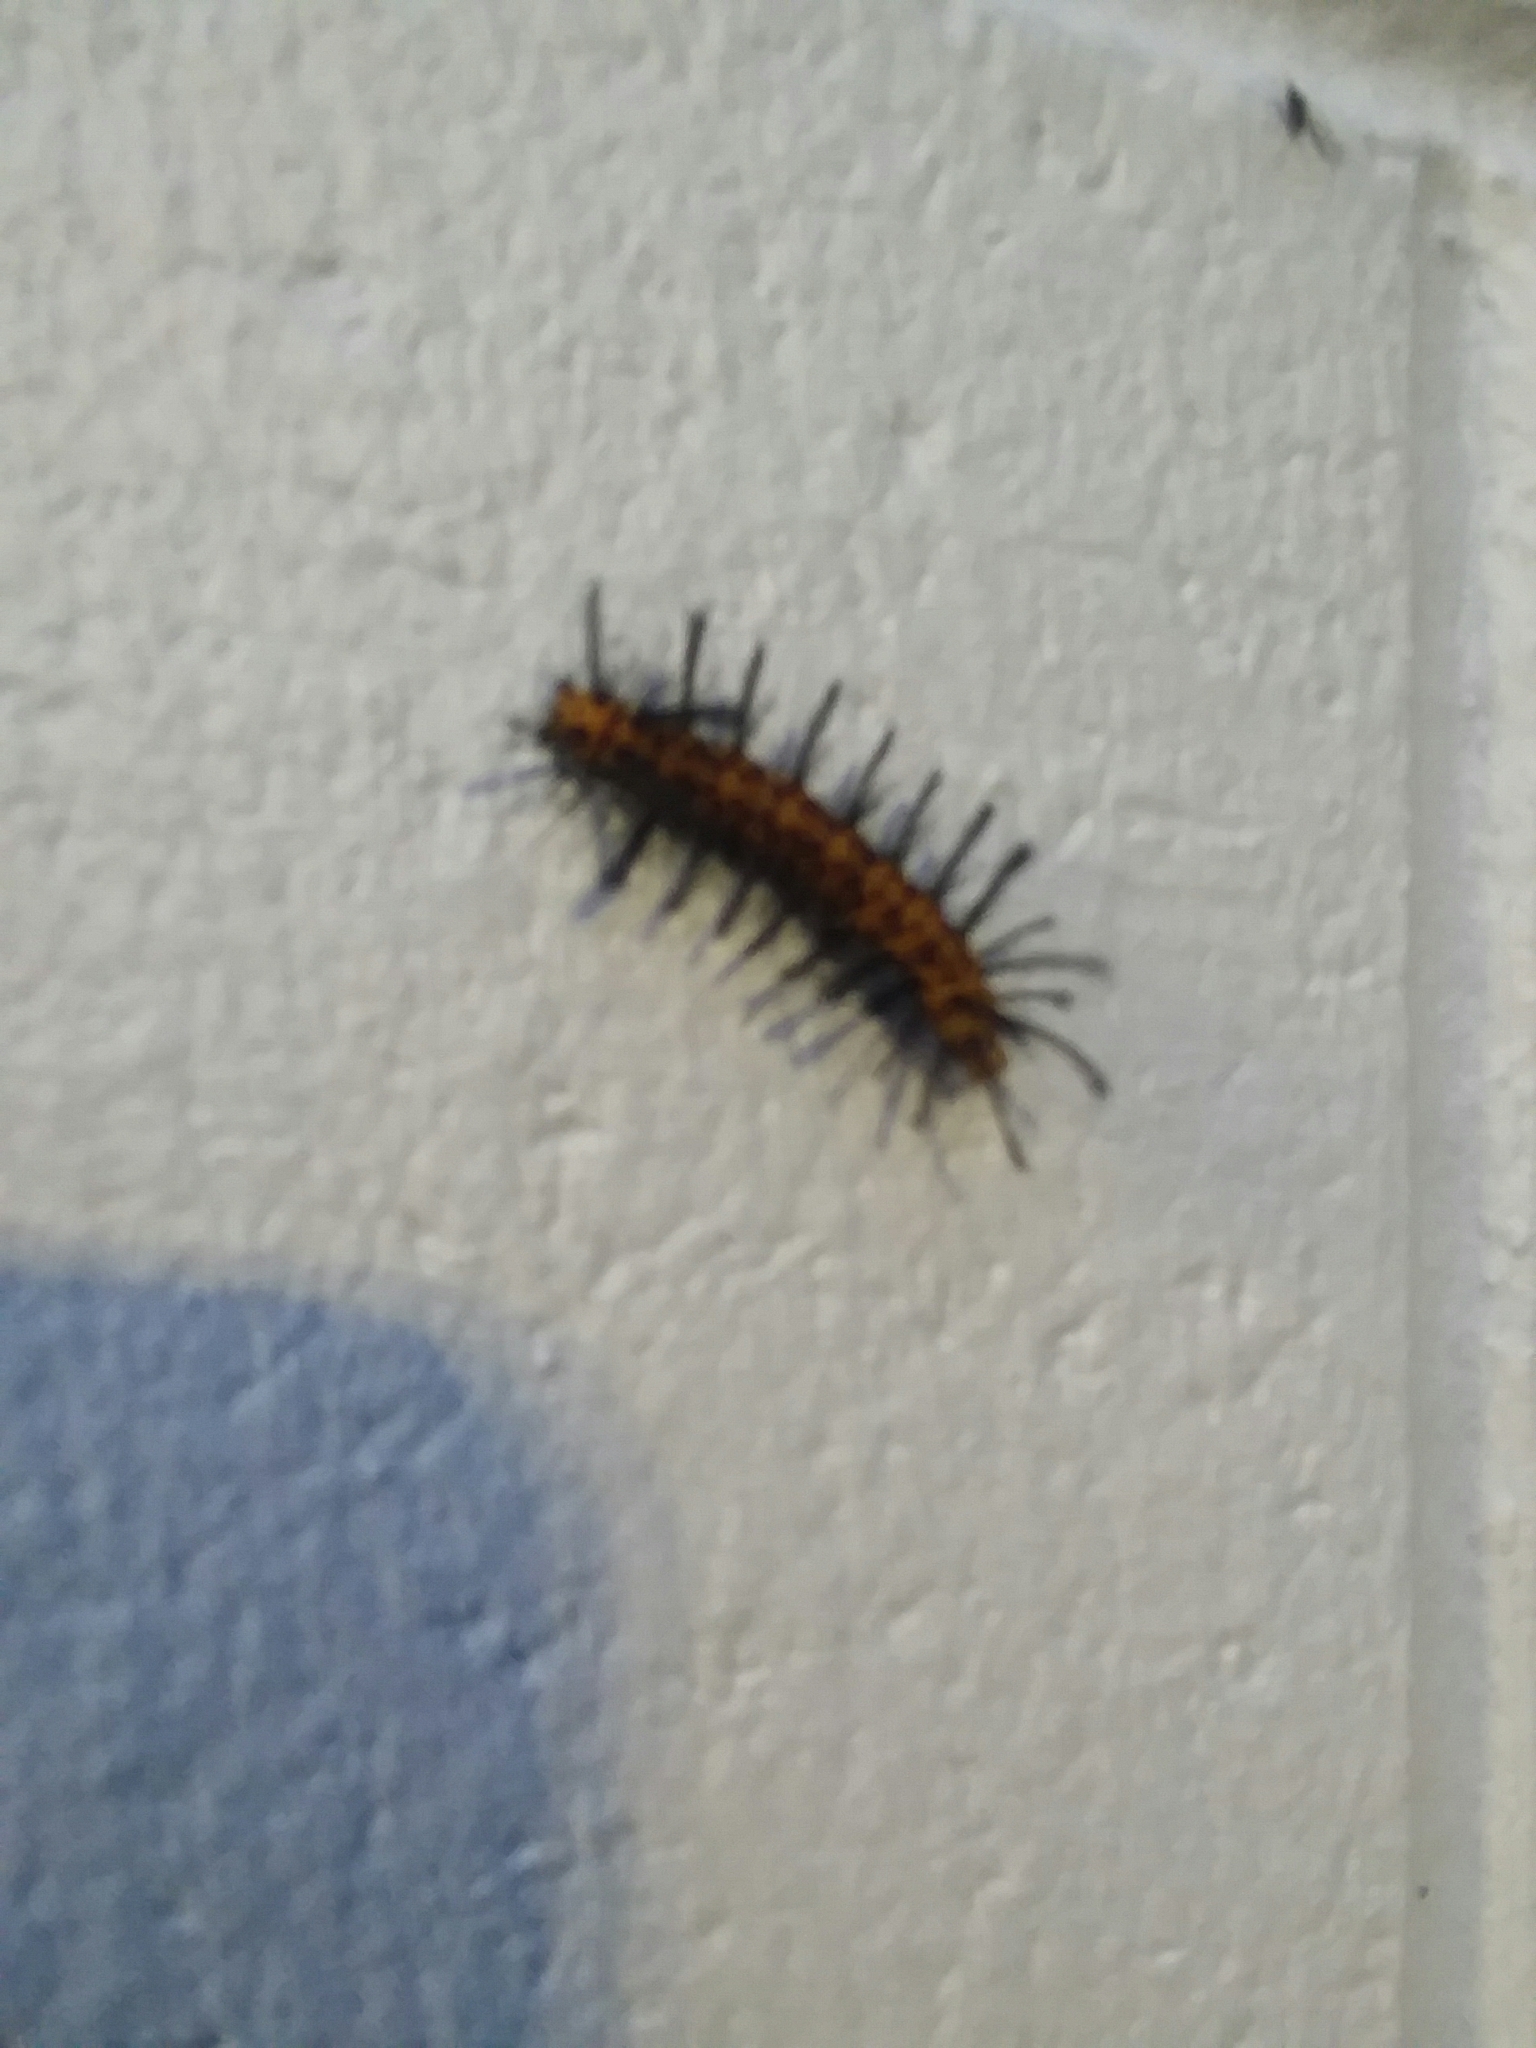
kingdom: Animalia
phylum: Arthropoda
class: Insecta
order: Lepidoptera
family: Erebidae
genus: Syntomeida
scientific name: Syntomeida epilais
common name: Polka-dot wasp moth
